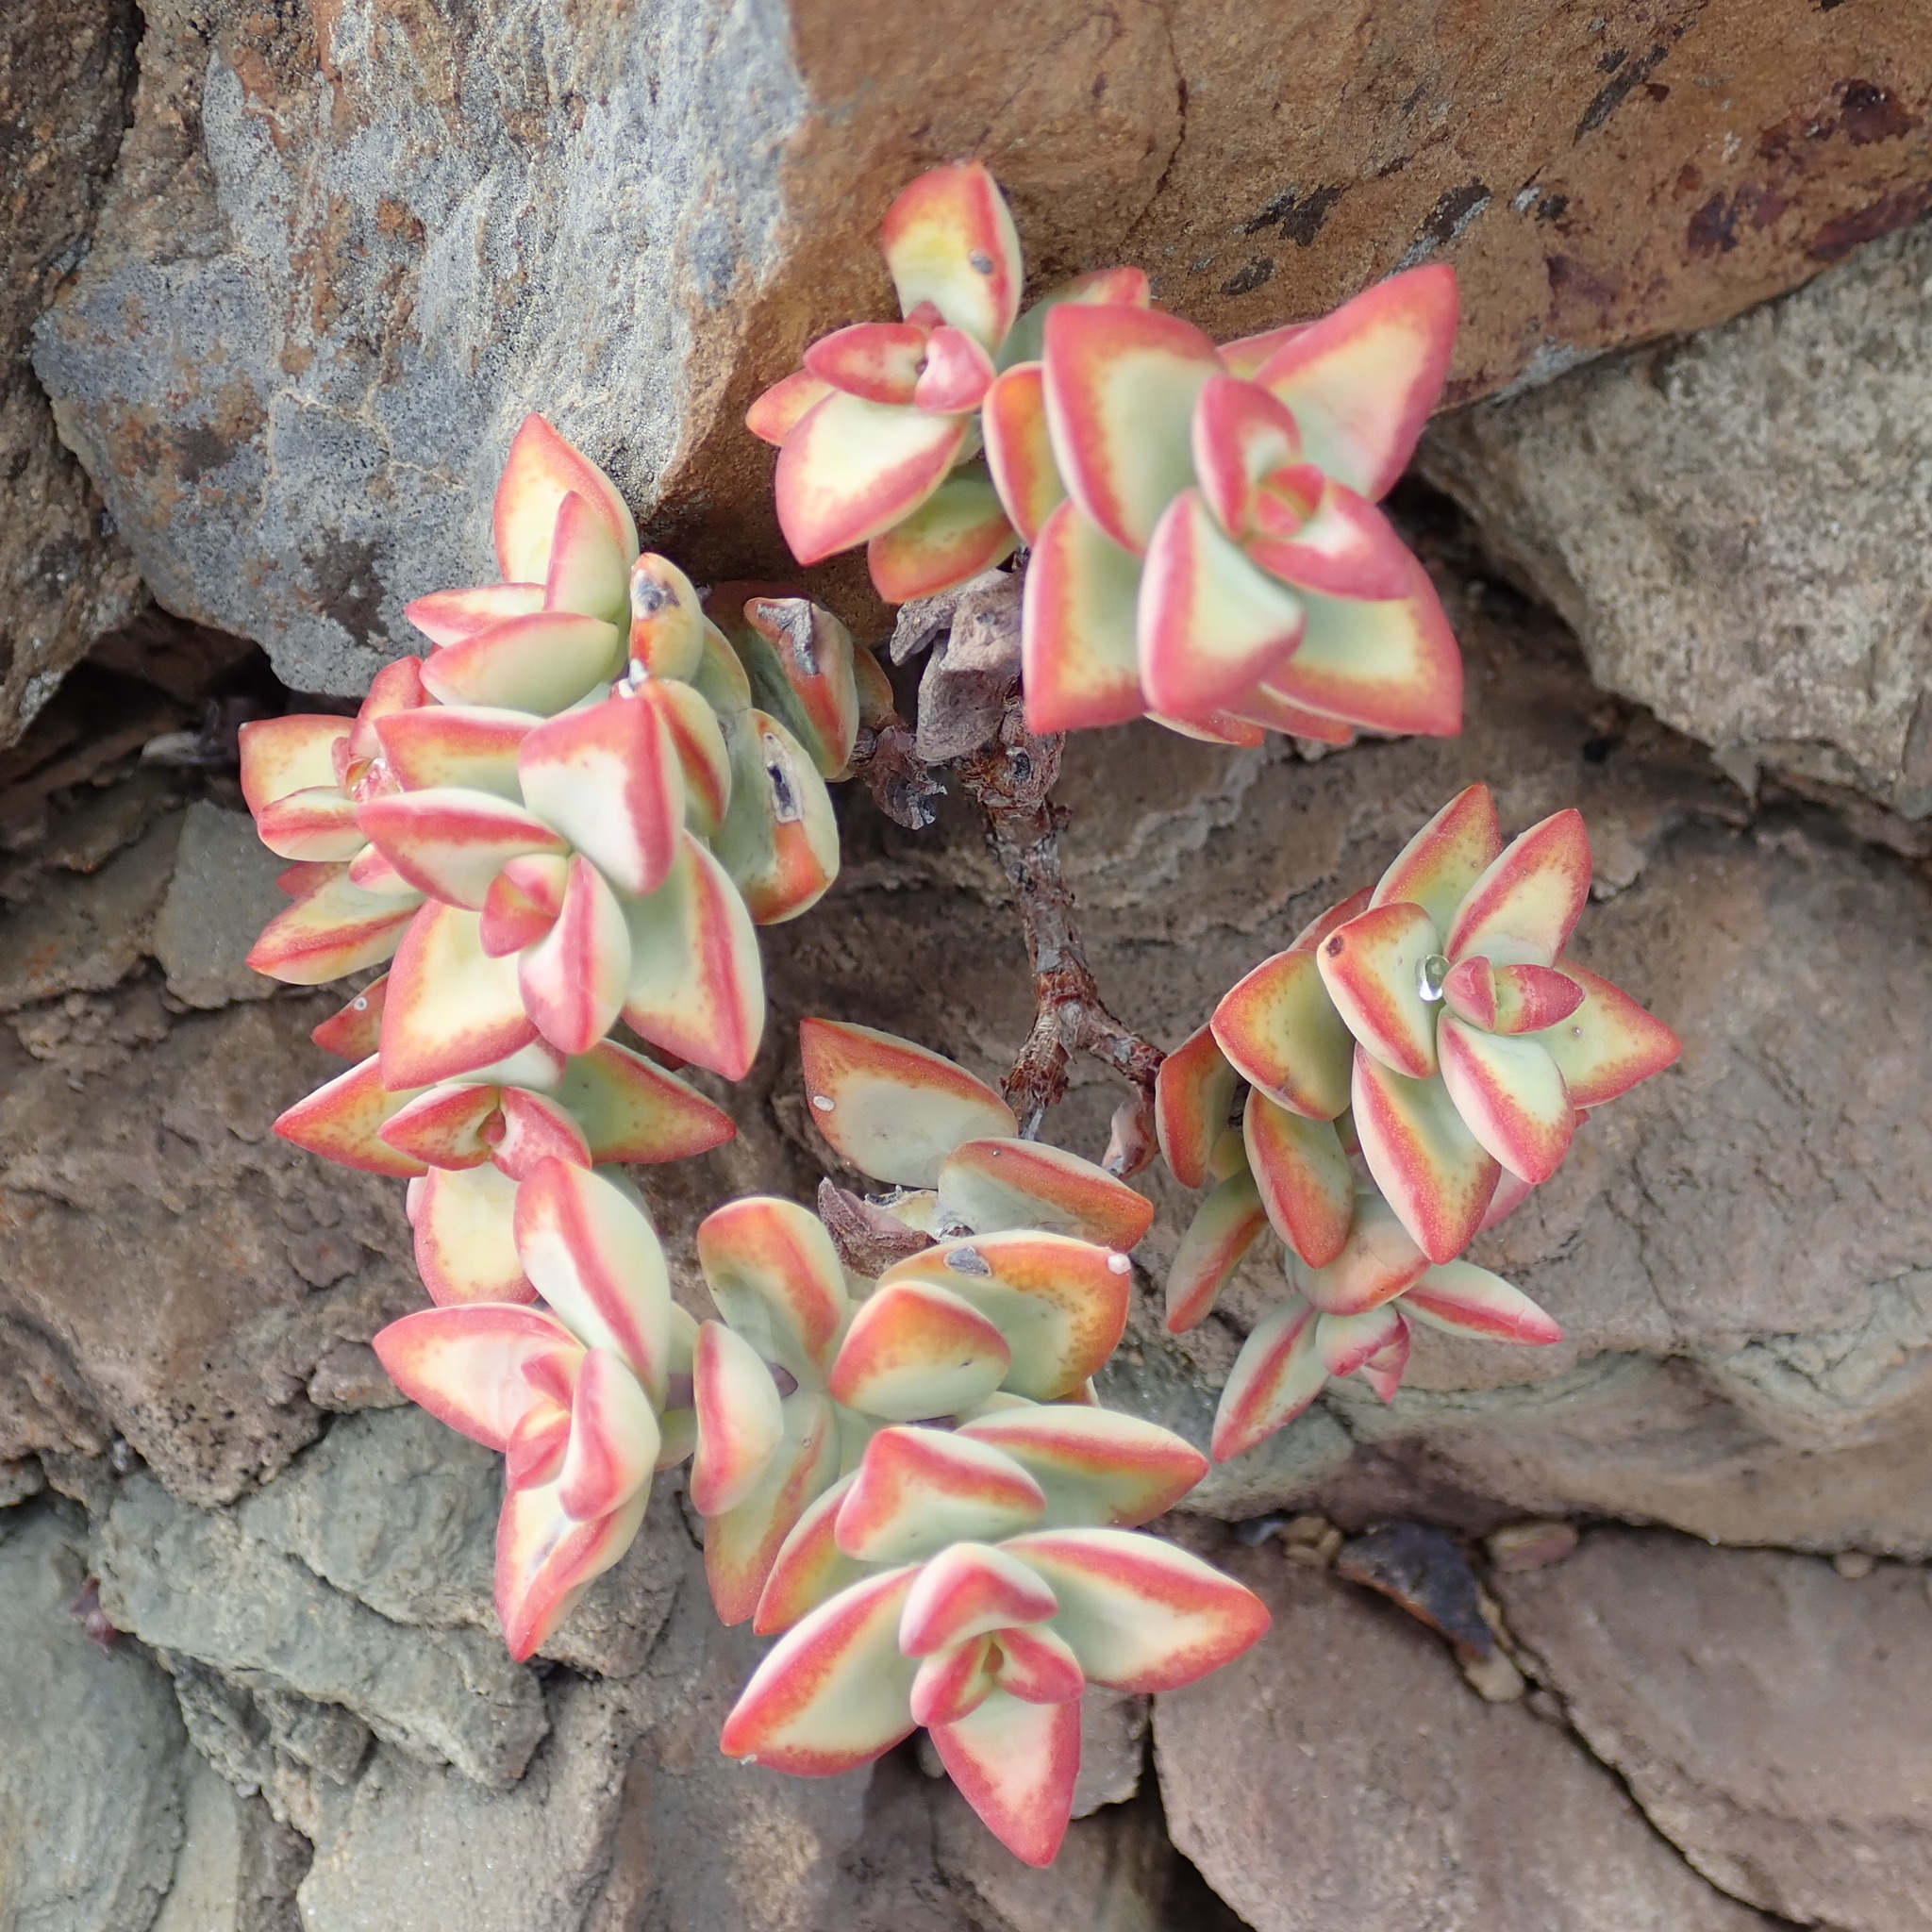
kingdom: Plantae
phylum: Tracheophyta
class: Magnoliopsida
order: Saxifragales
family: Crassulaceae
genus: Crassula
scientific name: Crassula rupestris
